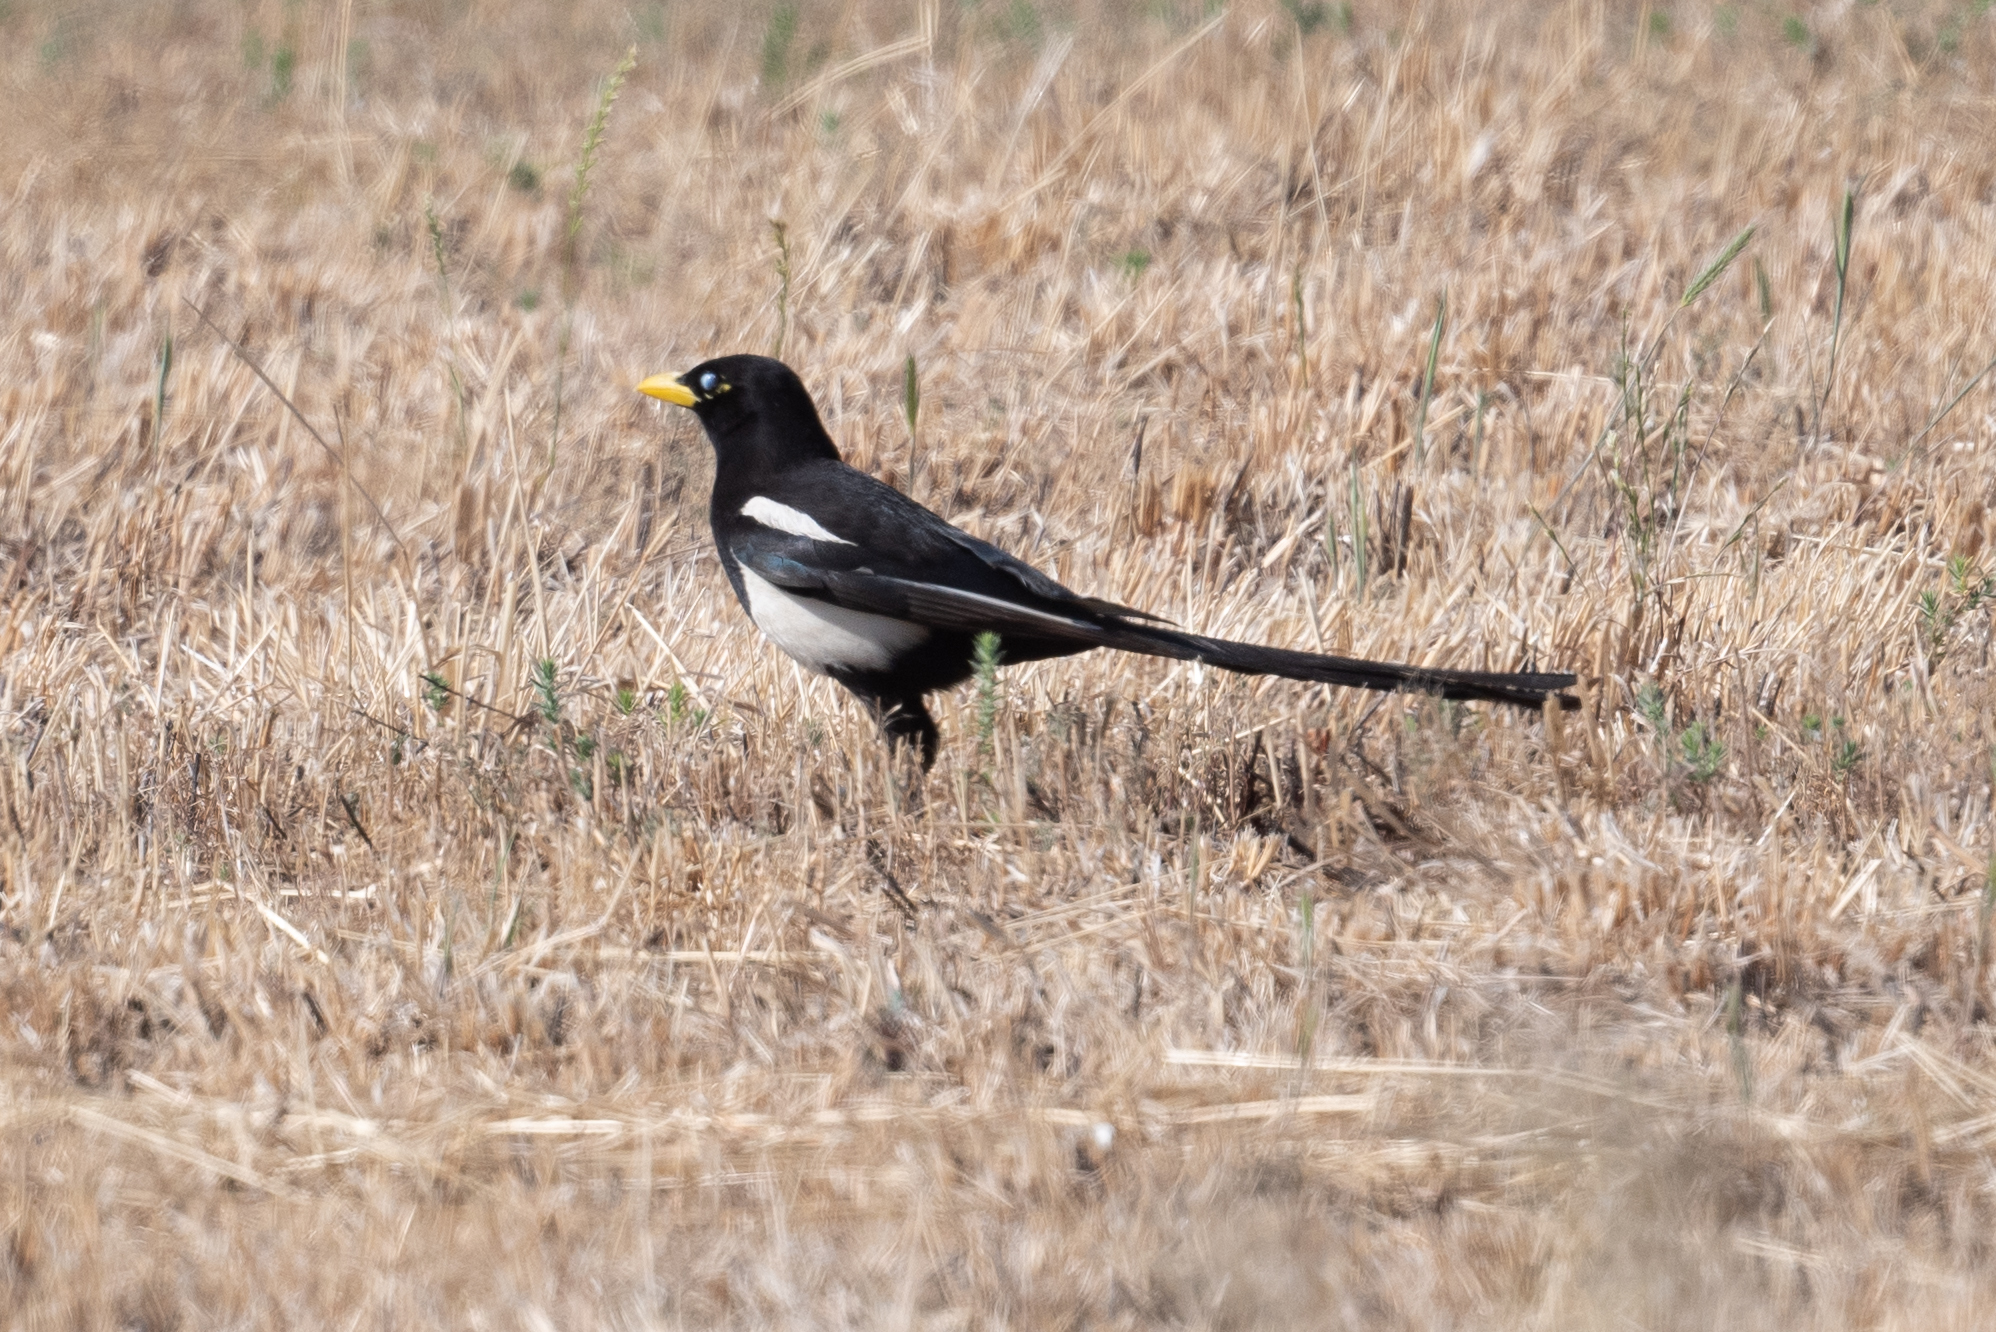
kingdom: Animalia
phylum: Chordata
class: Aves
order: Passeriformes
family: Corvidae
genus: Pica
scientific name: Pica nuttalli
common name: Yellow-billed magpie
